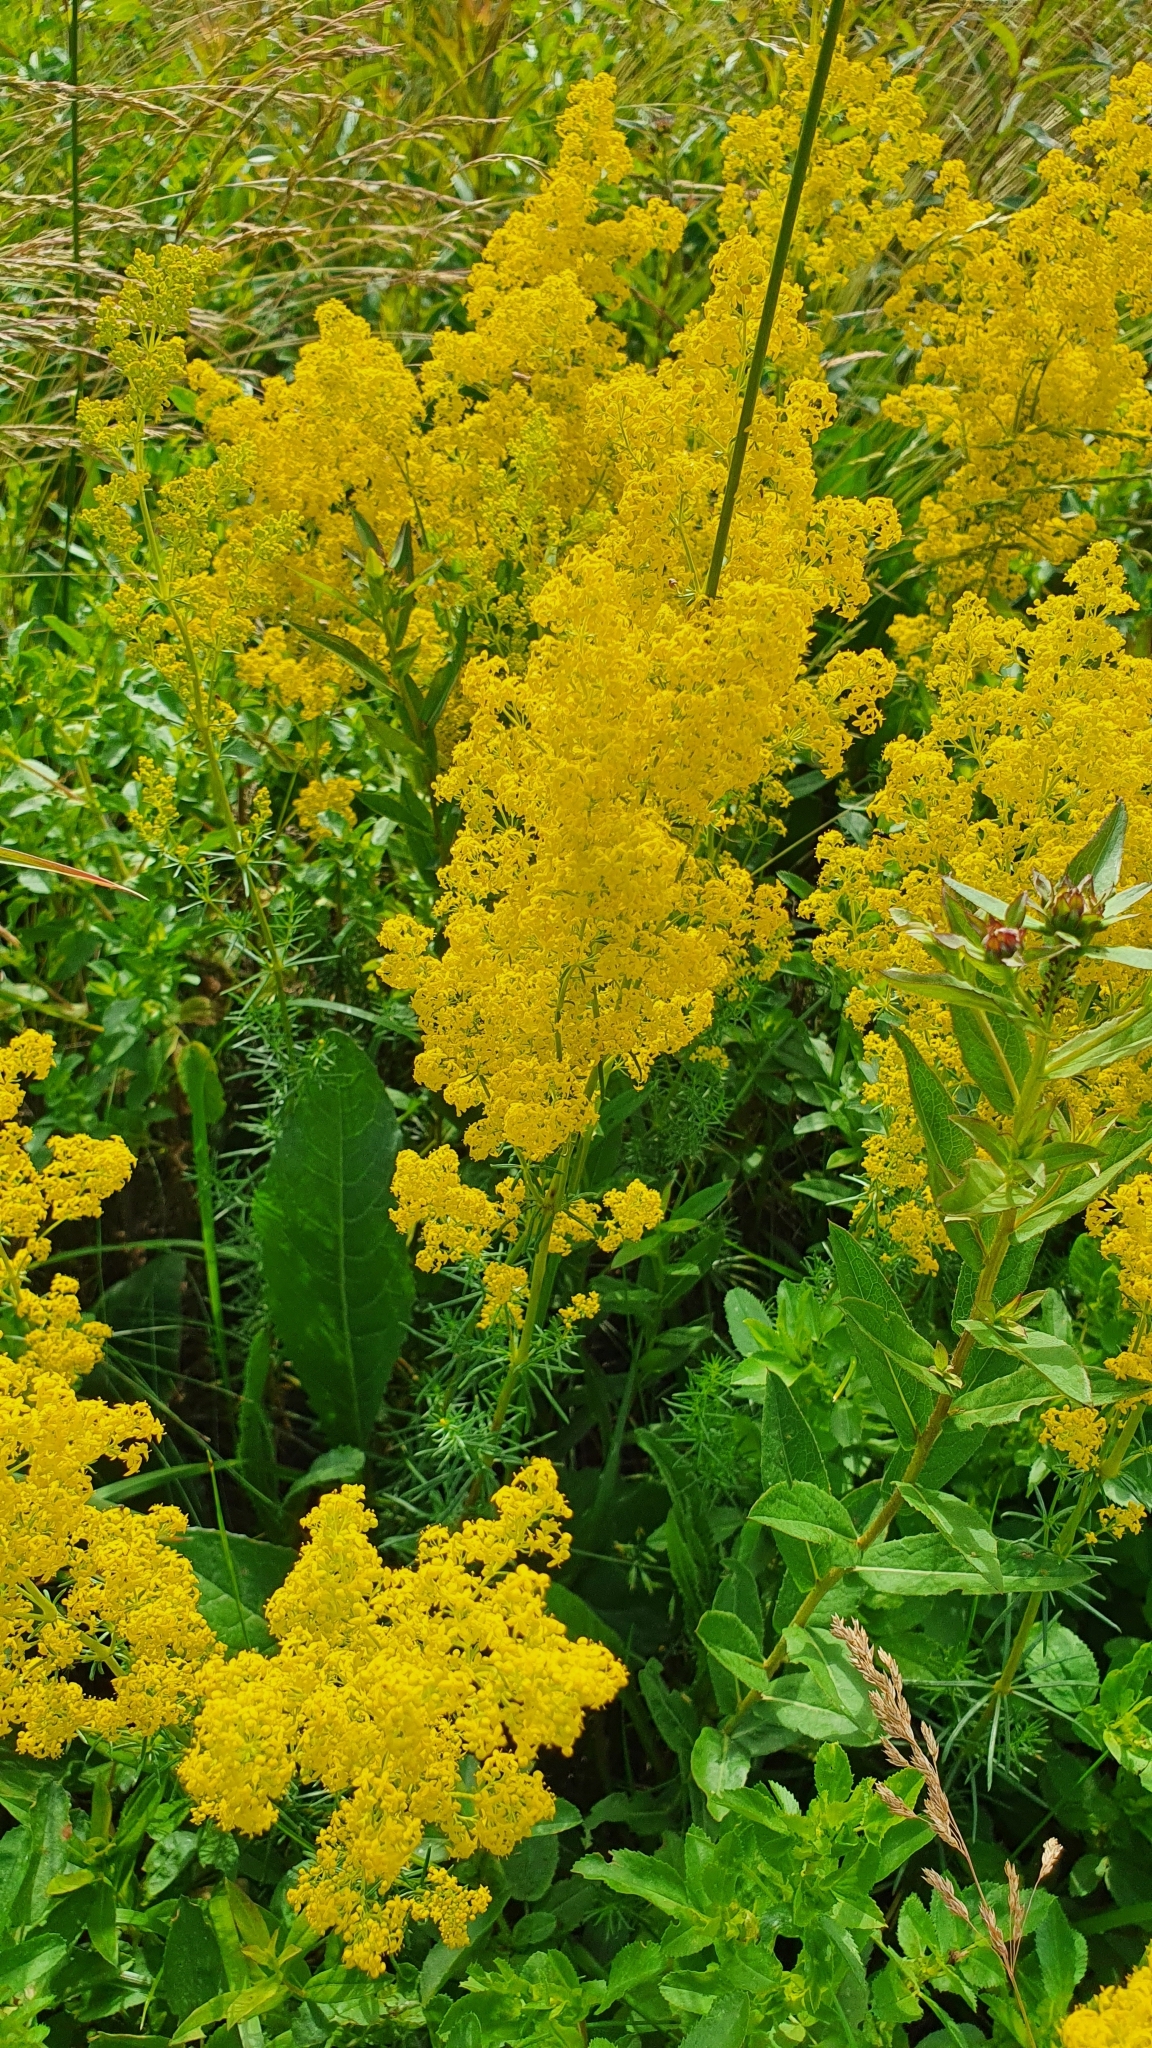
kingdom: Plantae
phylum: Tracheophyta
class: Magnoliopsida
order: Gentianales
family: Rubiaceae
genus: Galium
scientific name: Galium verum
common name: Lady's bedstraw
